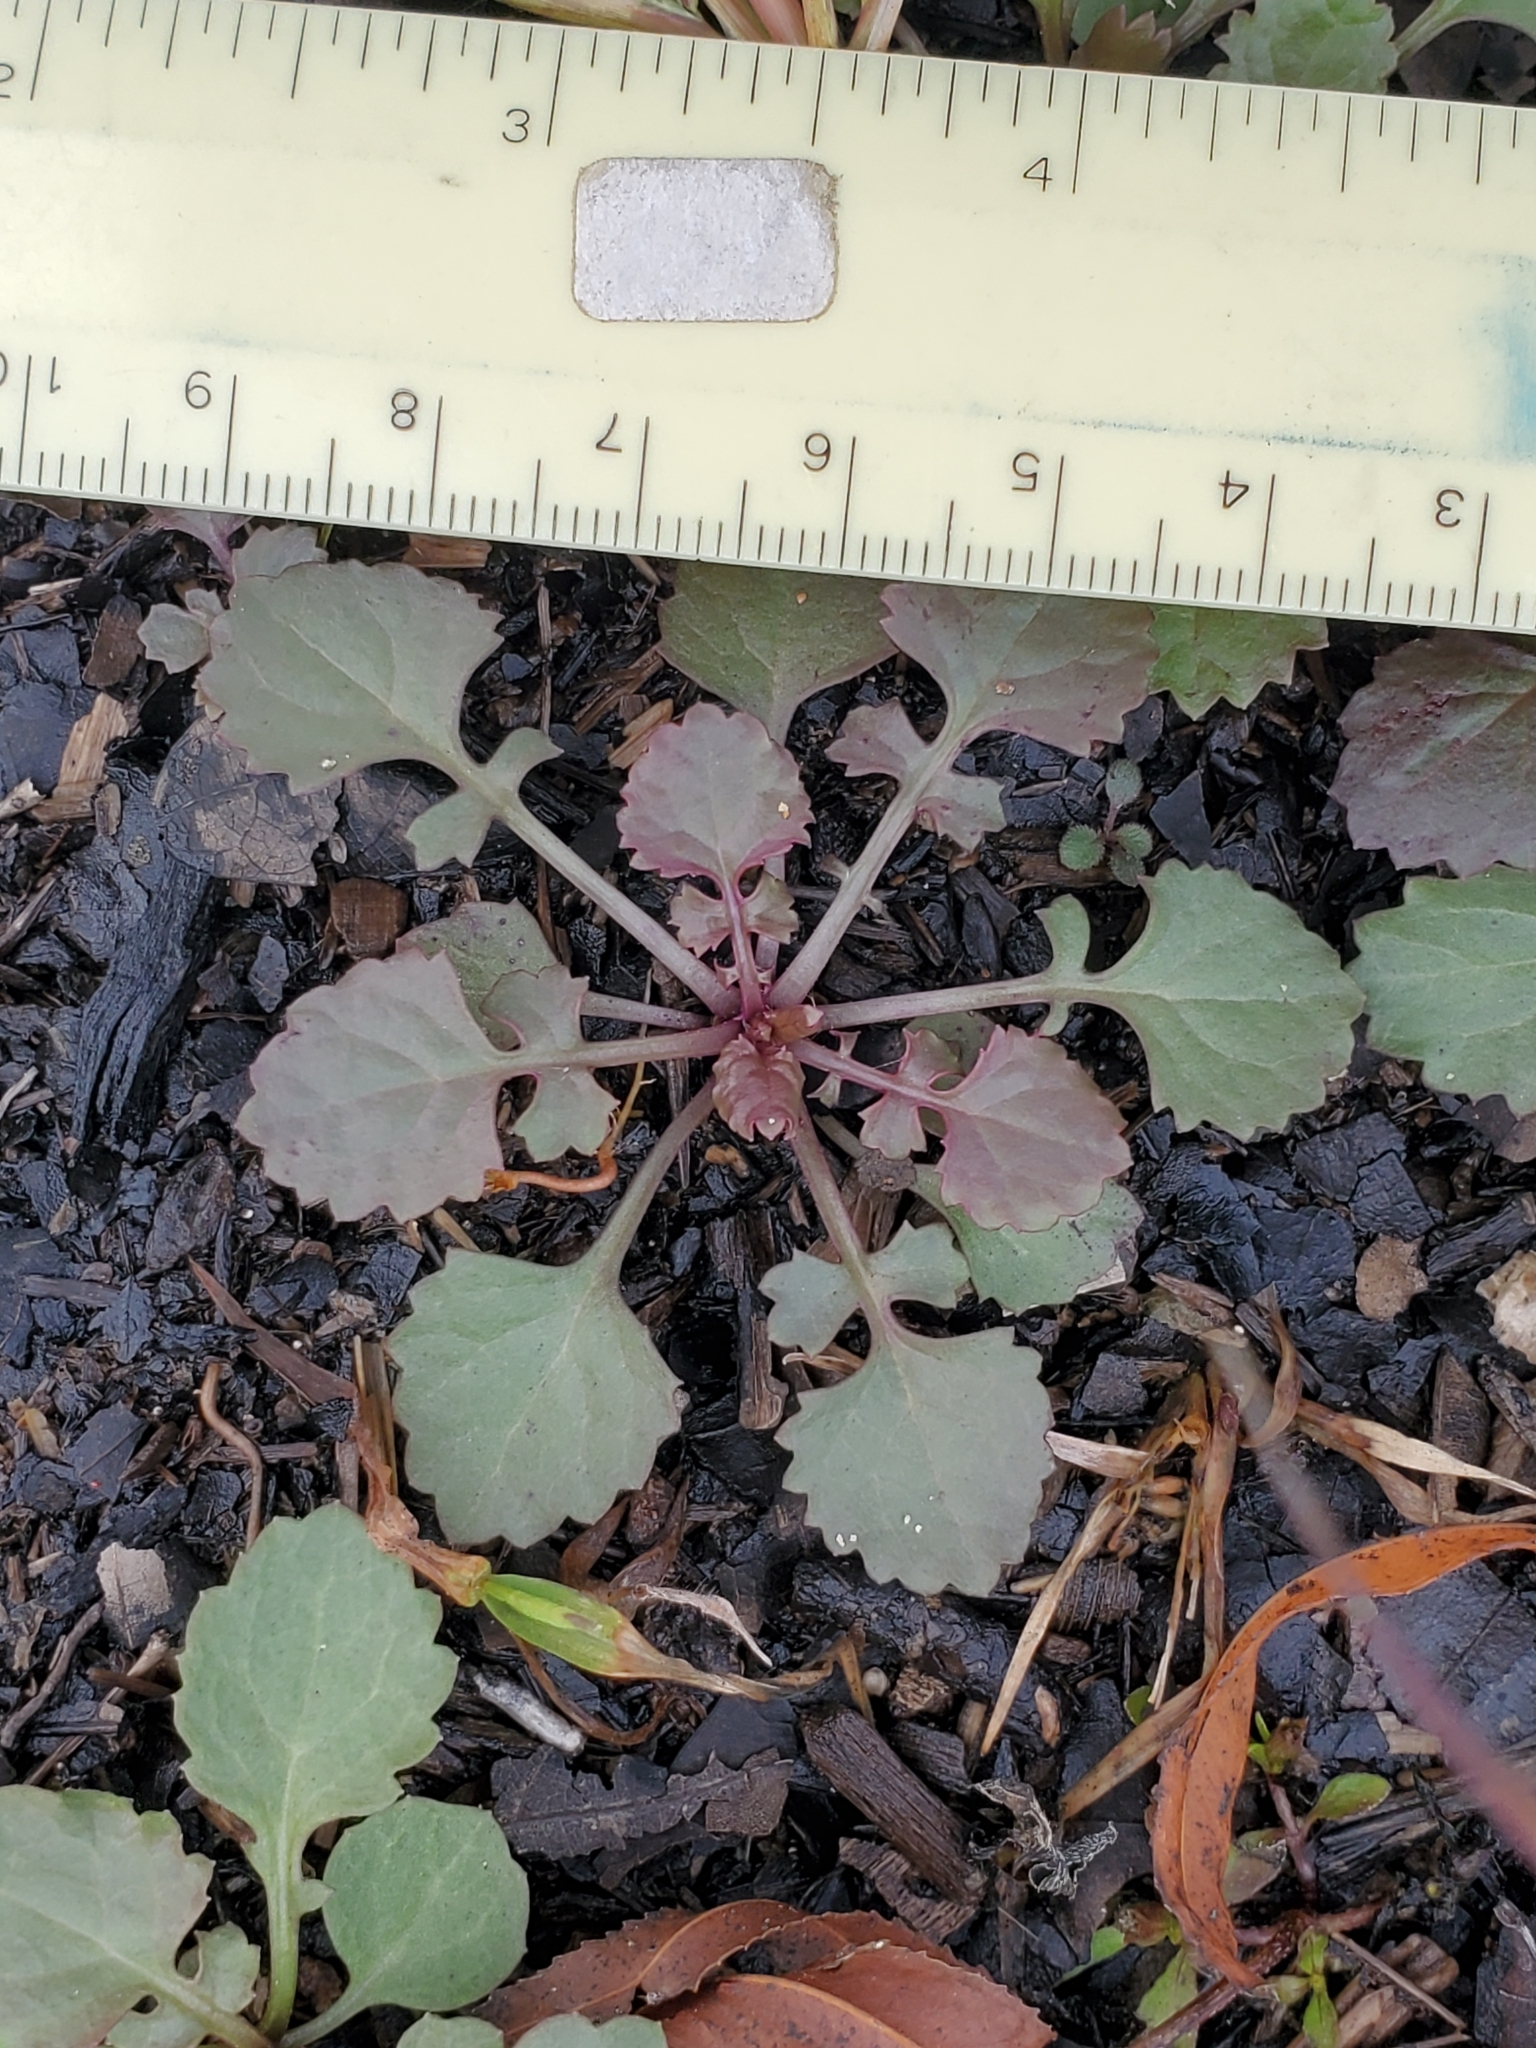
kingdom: Plantae
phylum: Tracheophyta
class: Magnoliopsida
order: Asterales
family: Asteraceae
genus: Packera
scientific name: Packera glabella
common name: Butterweed
